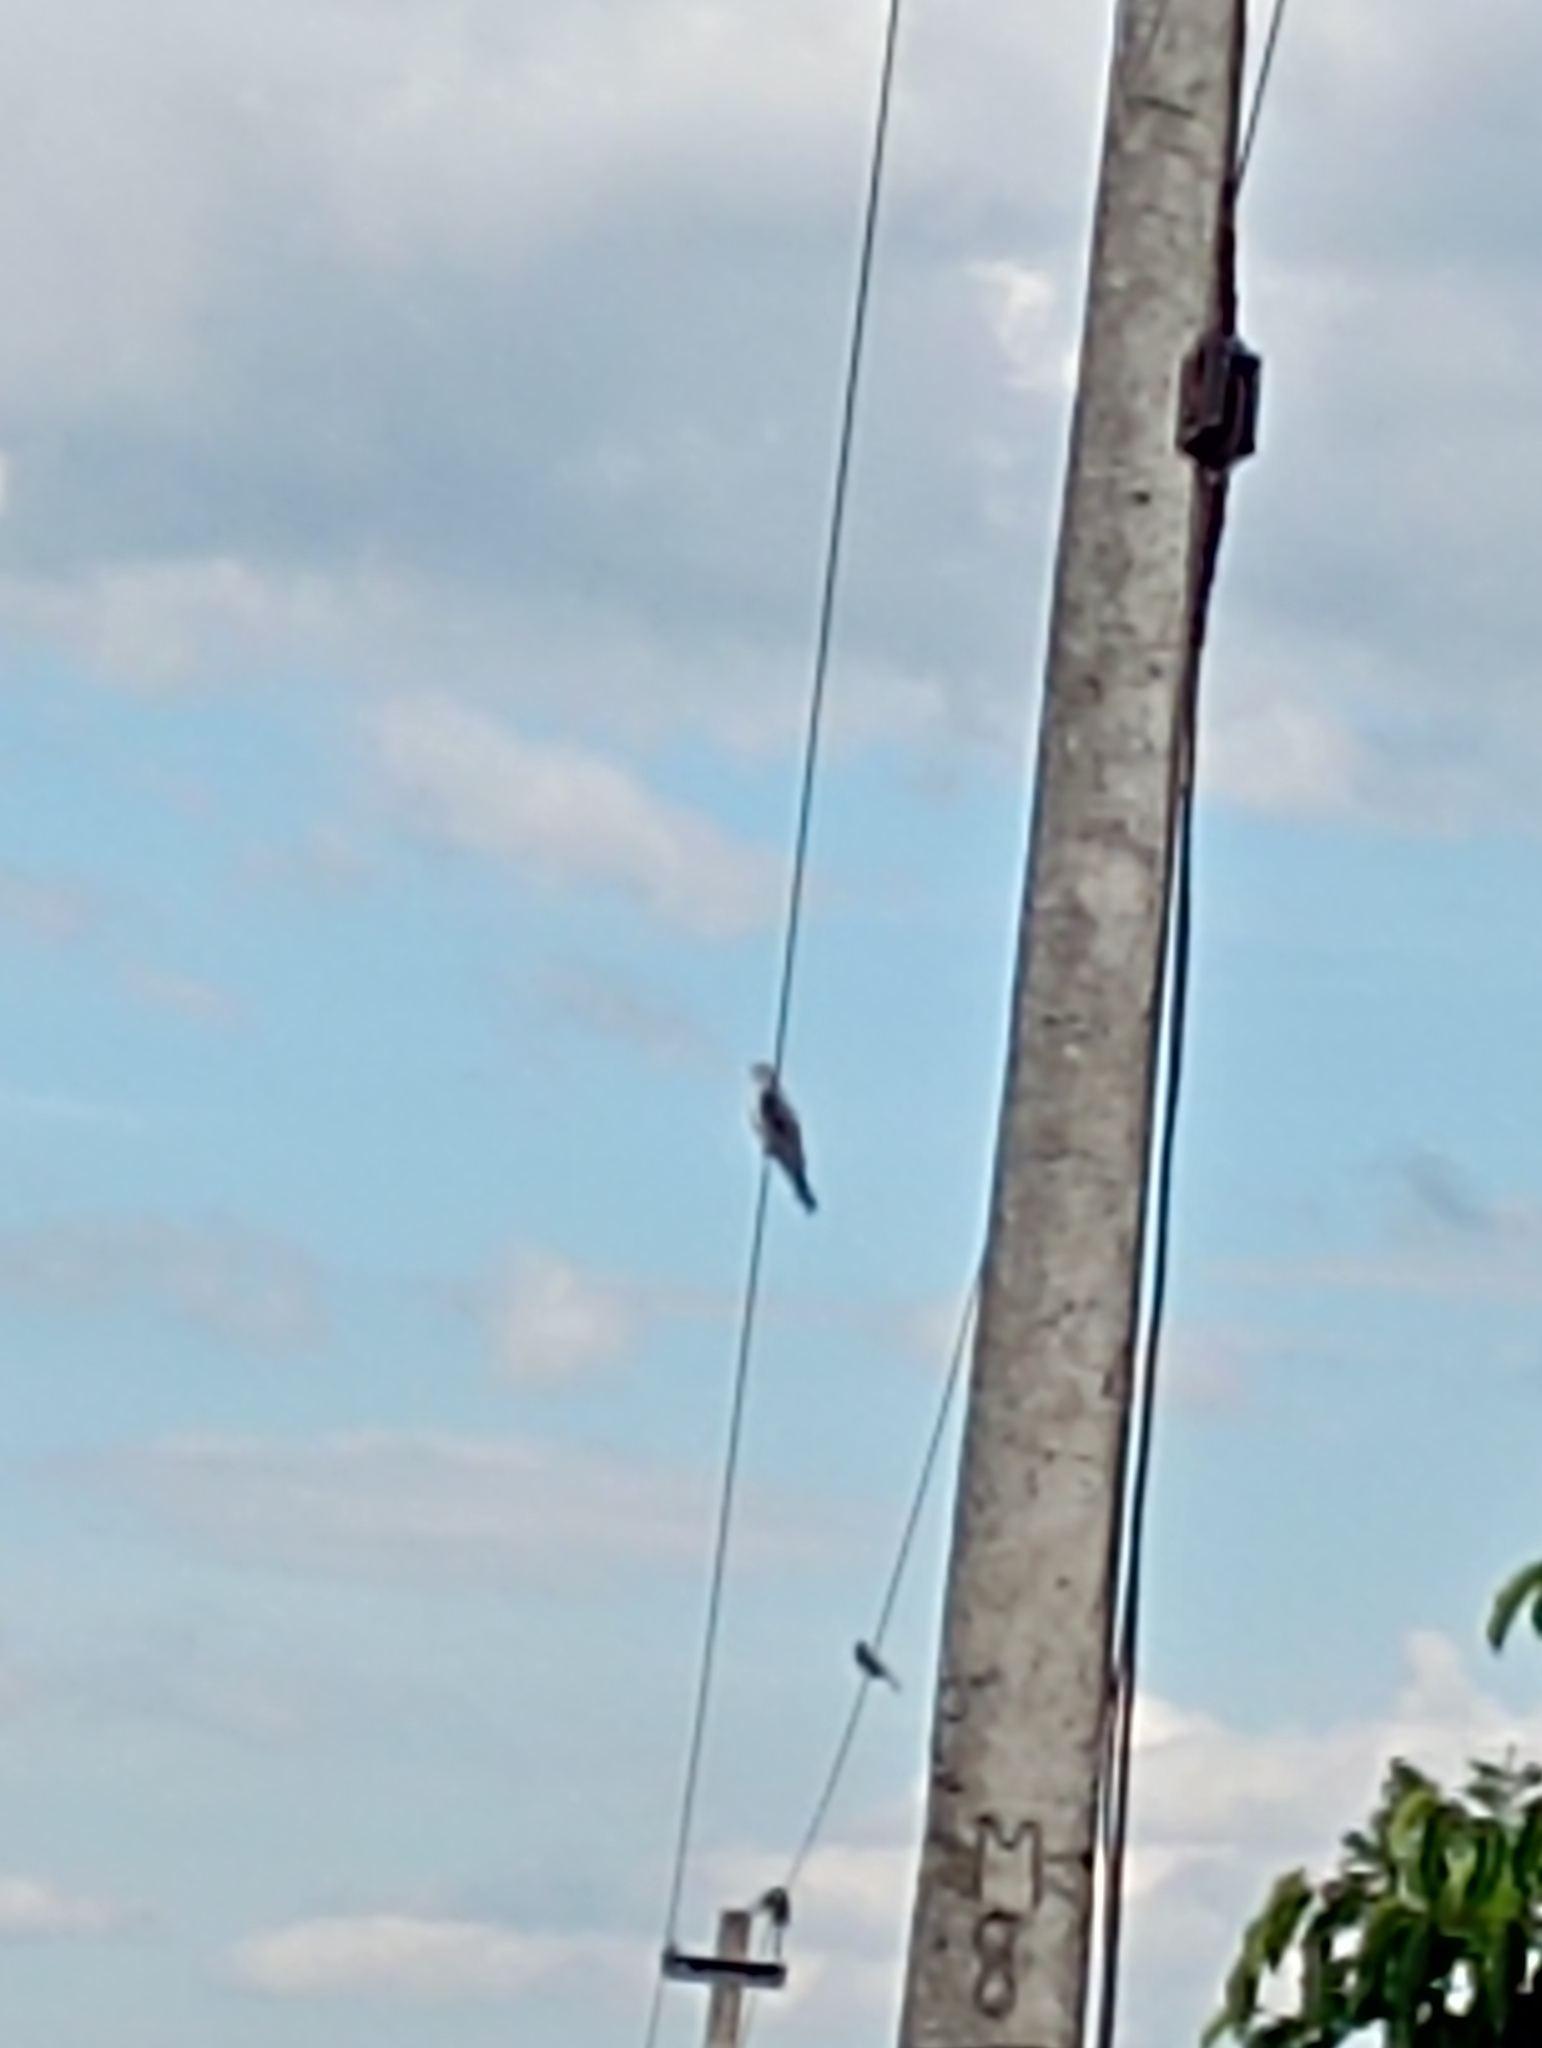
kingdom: Animalia
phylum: Chordata
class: Aves
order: Accipitriformes
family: Accipitridae
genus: Elanus
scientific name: Elanus caeruleus
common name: Black-winged kite
